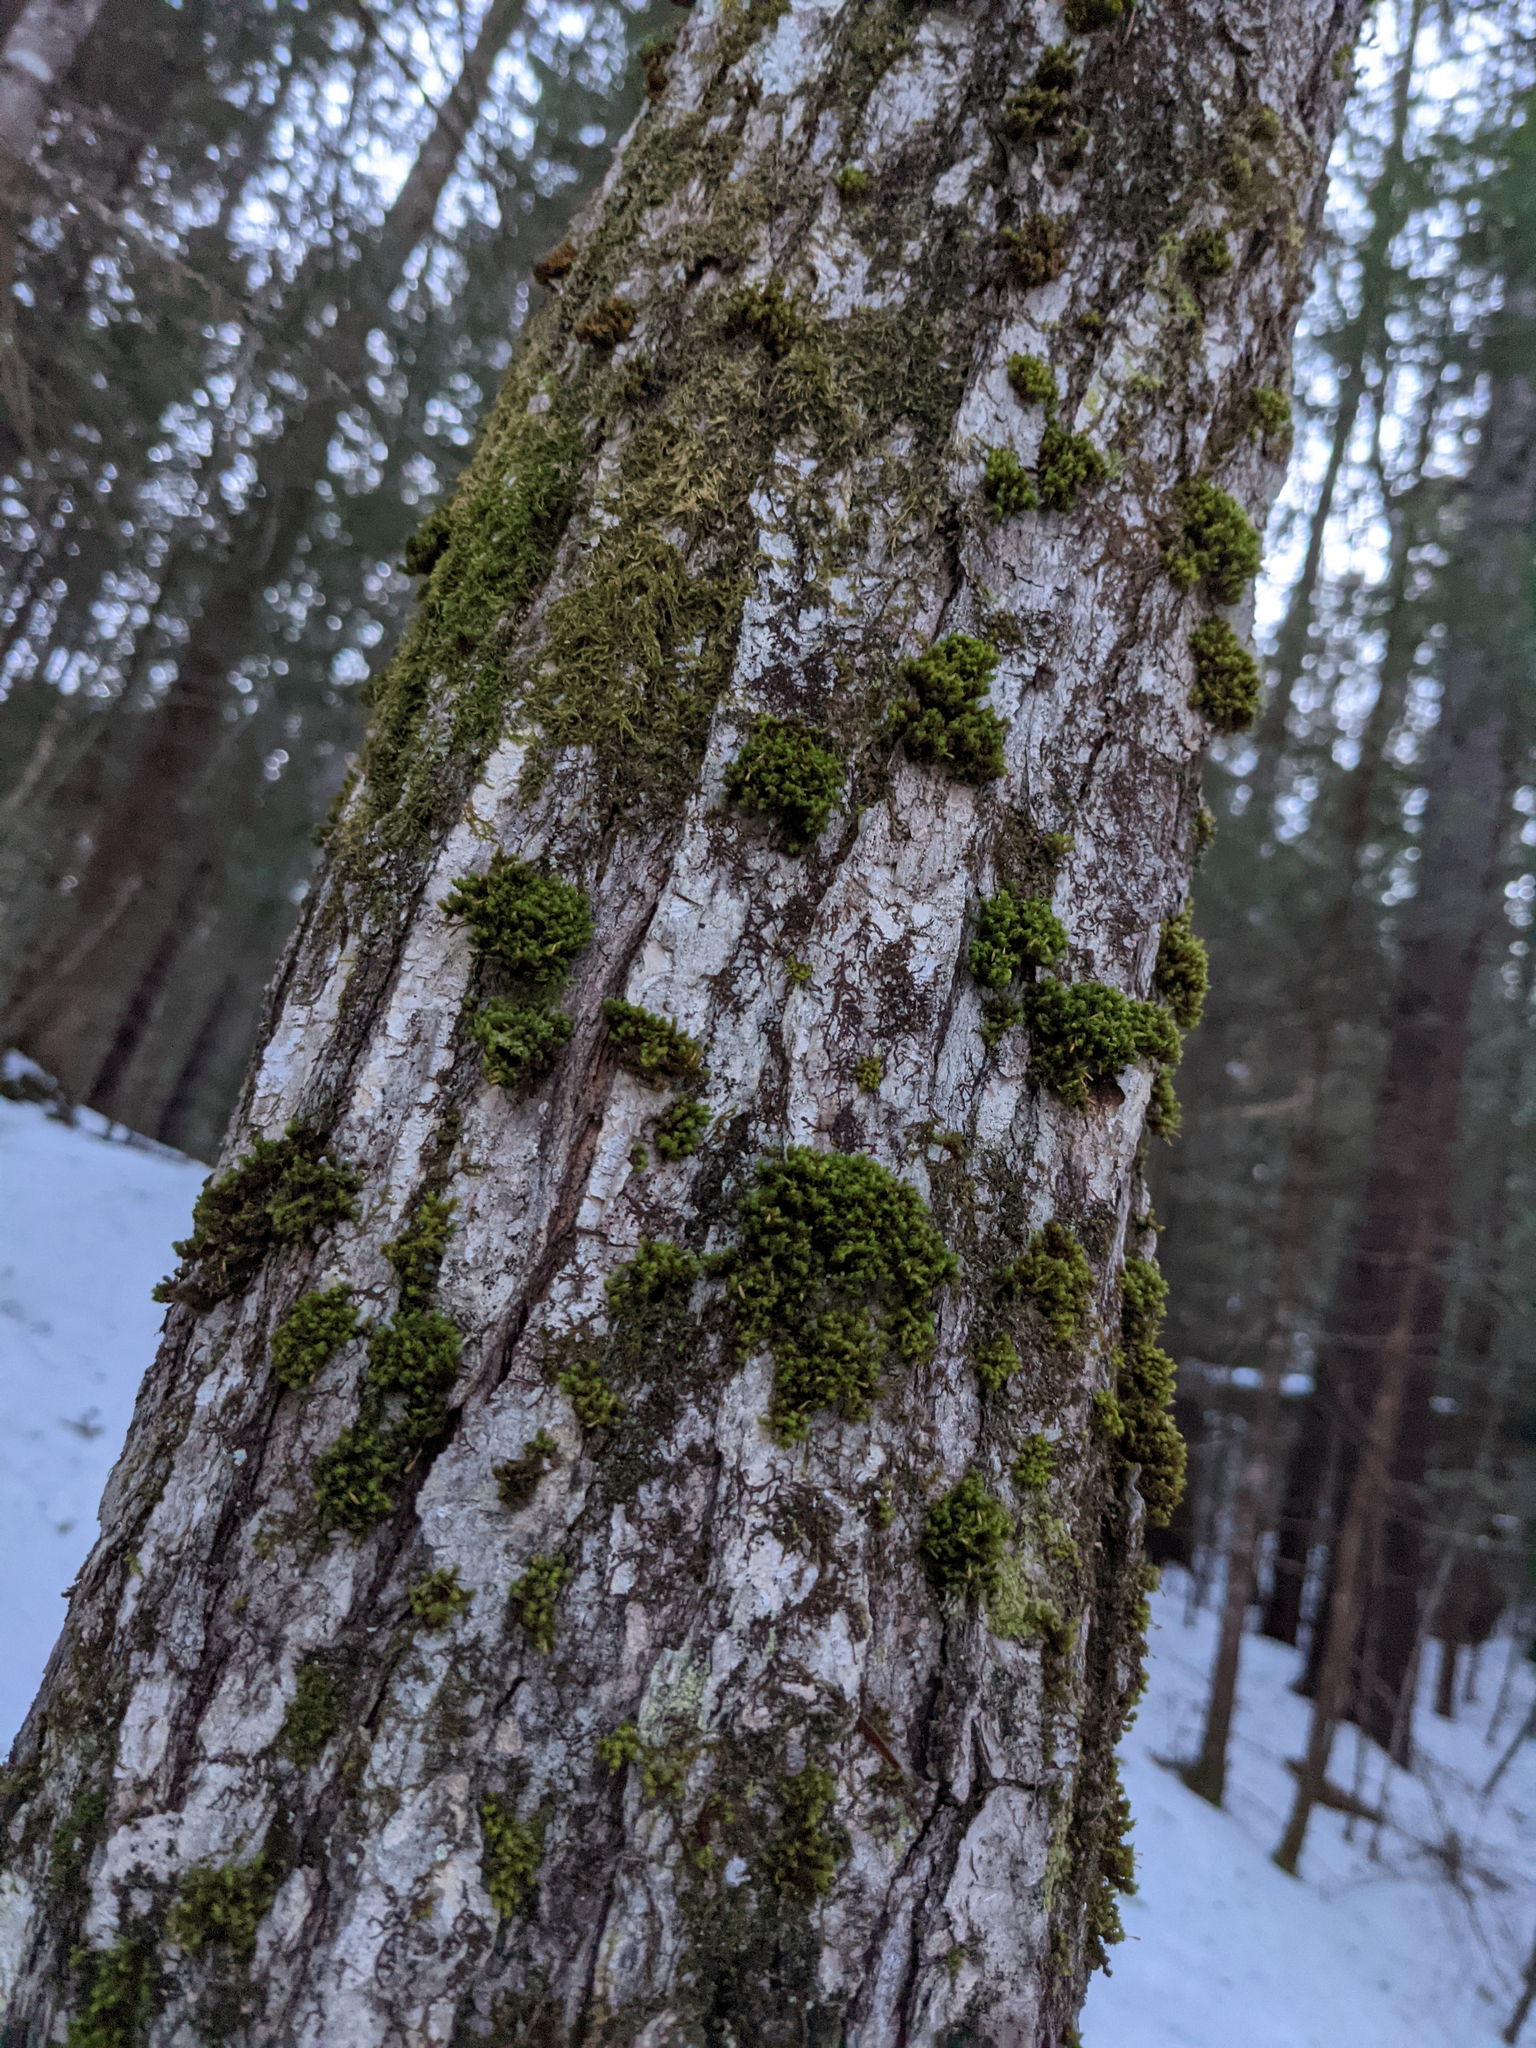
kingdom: Plantae
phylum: Bryophyta
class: Bryopsida
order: Orthotrichales
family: Orthotrichaceae
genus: Ulota
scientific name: Ulota crispa
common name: Crisped pincushion moss
